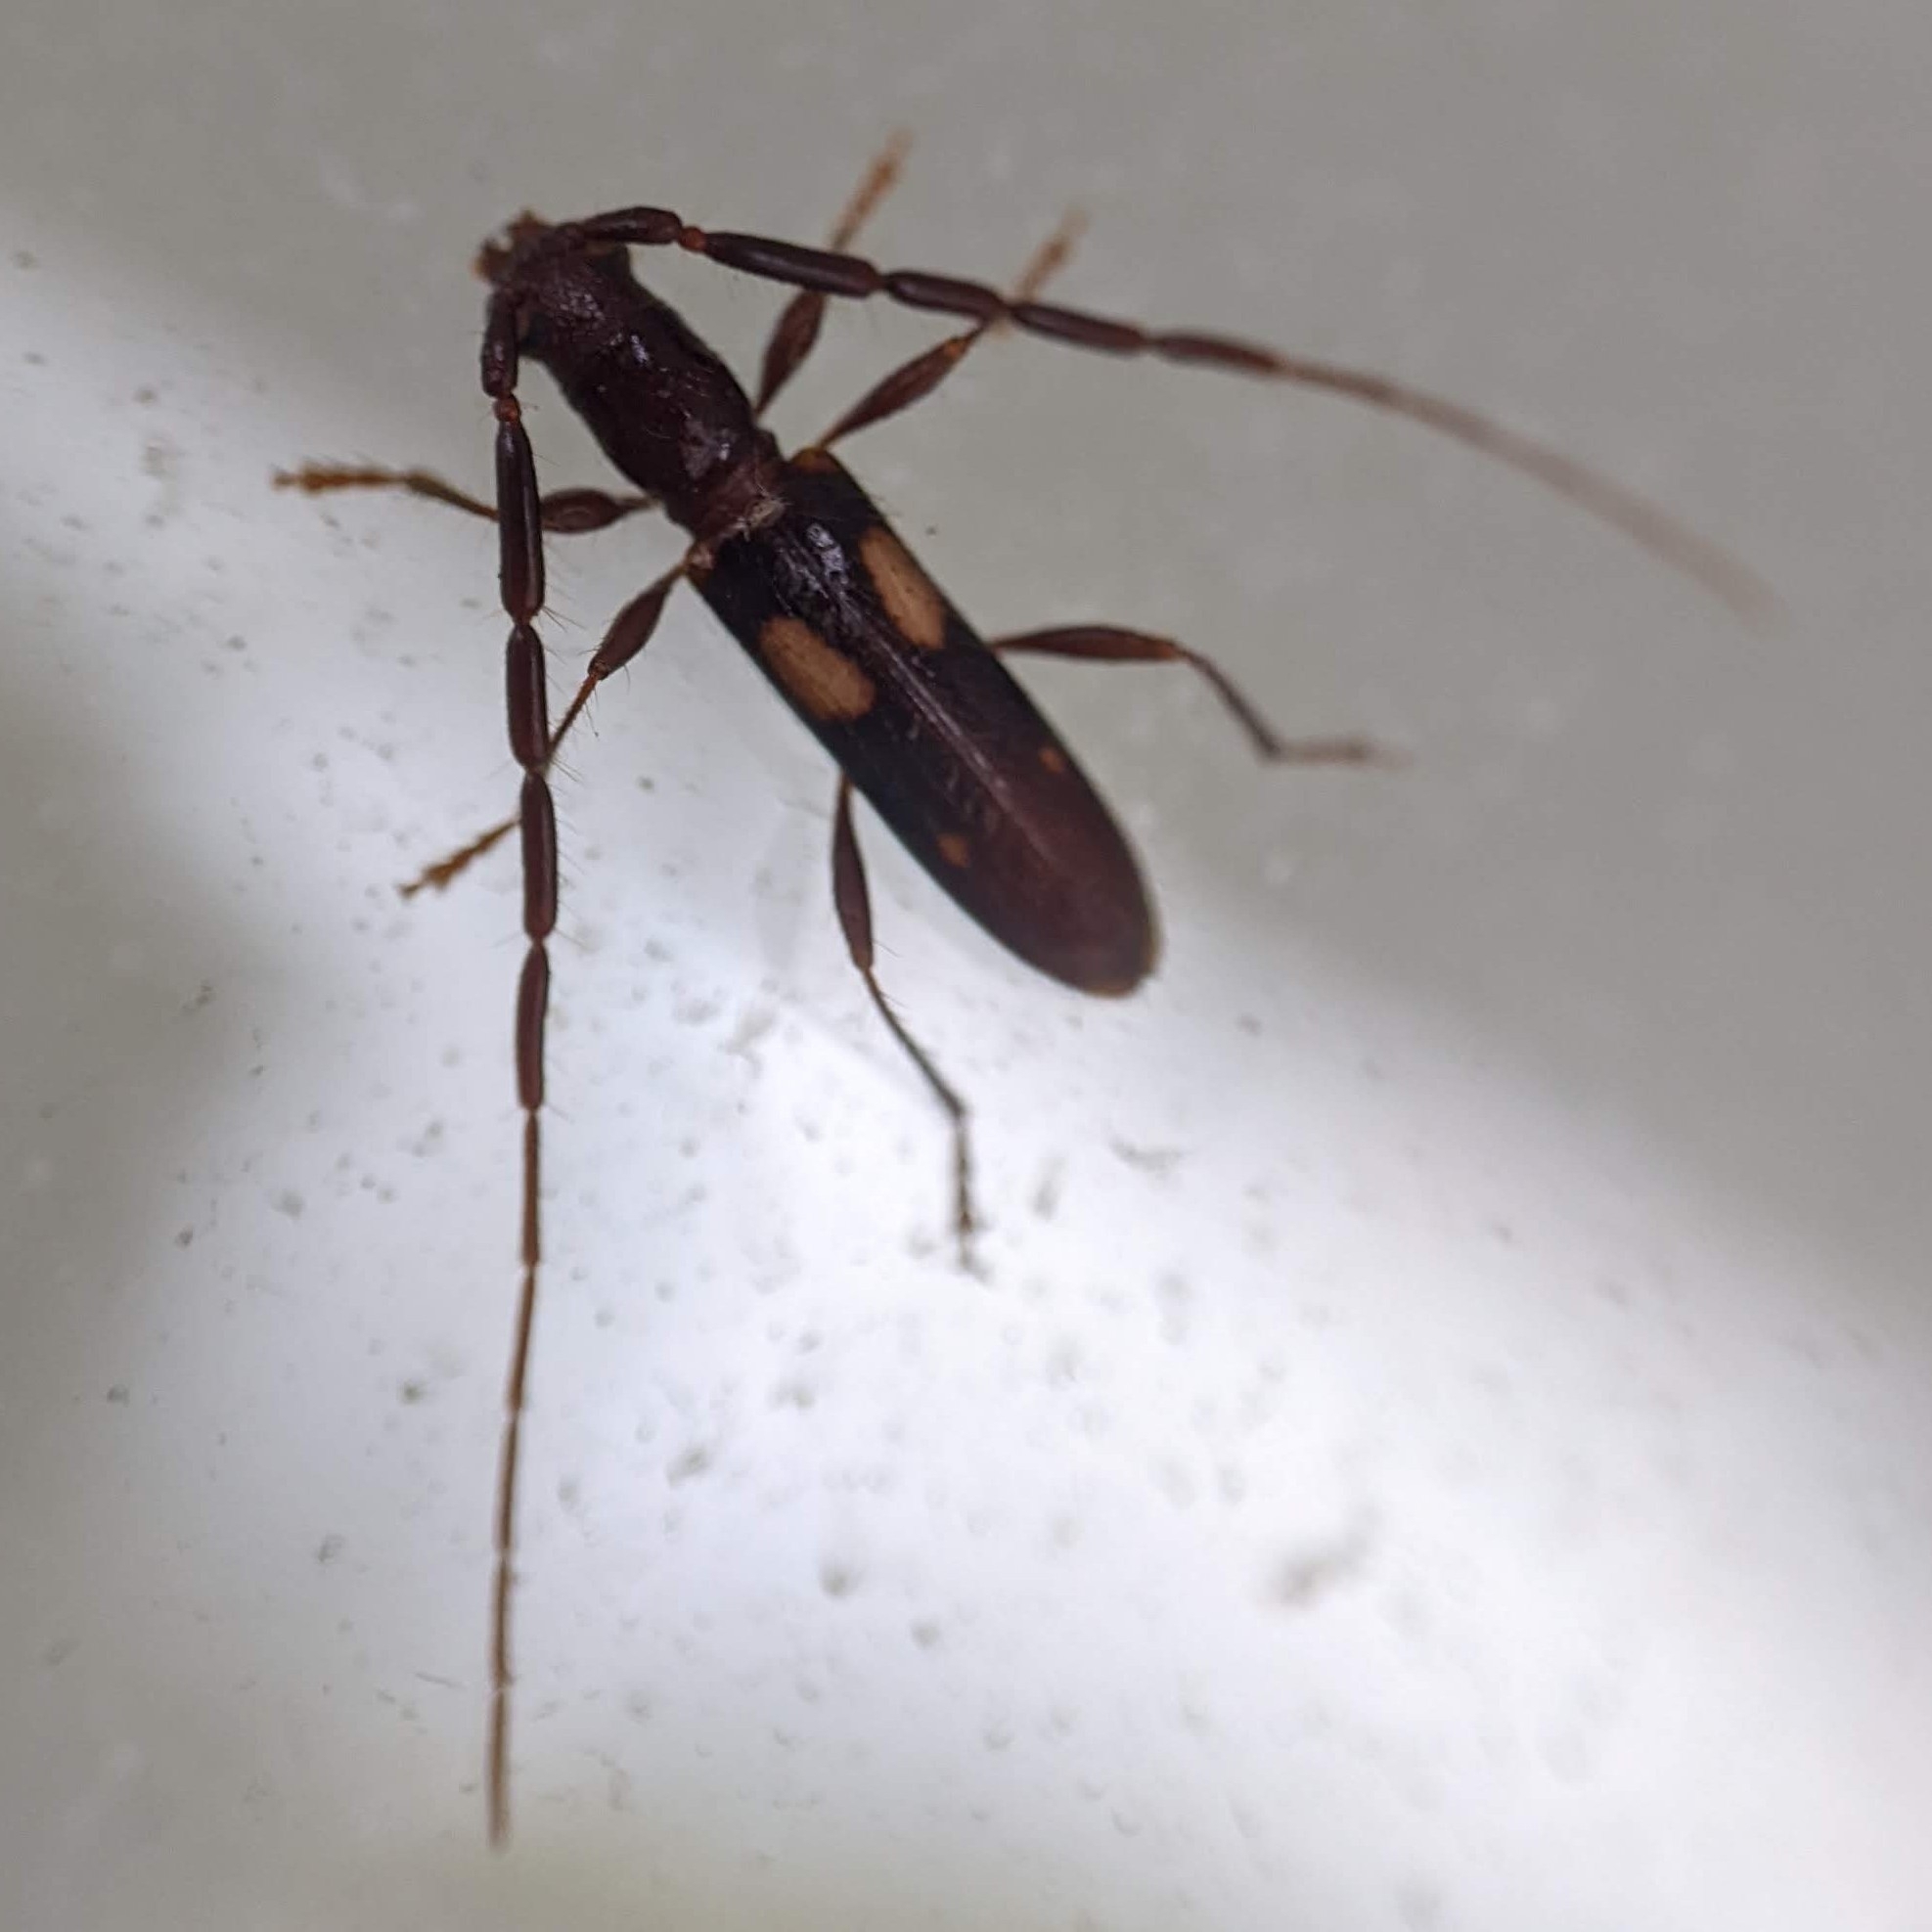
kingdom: Animalia
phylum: Arthropoda
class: Insecta
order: Coleoptera
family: Cerambycidae
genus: Heterachthes
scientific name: Heterachthes quadrimaculatus
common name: Four-spotted hickory borer
